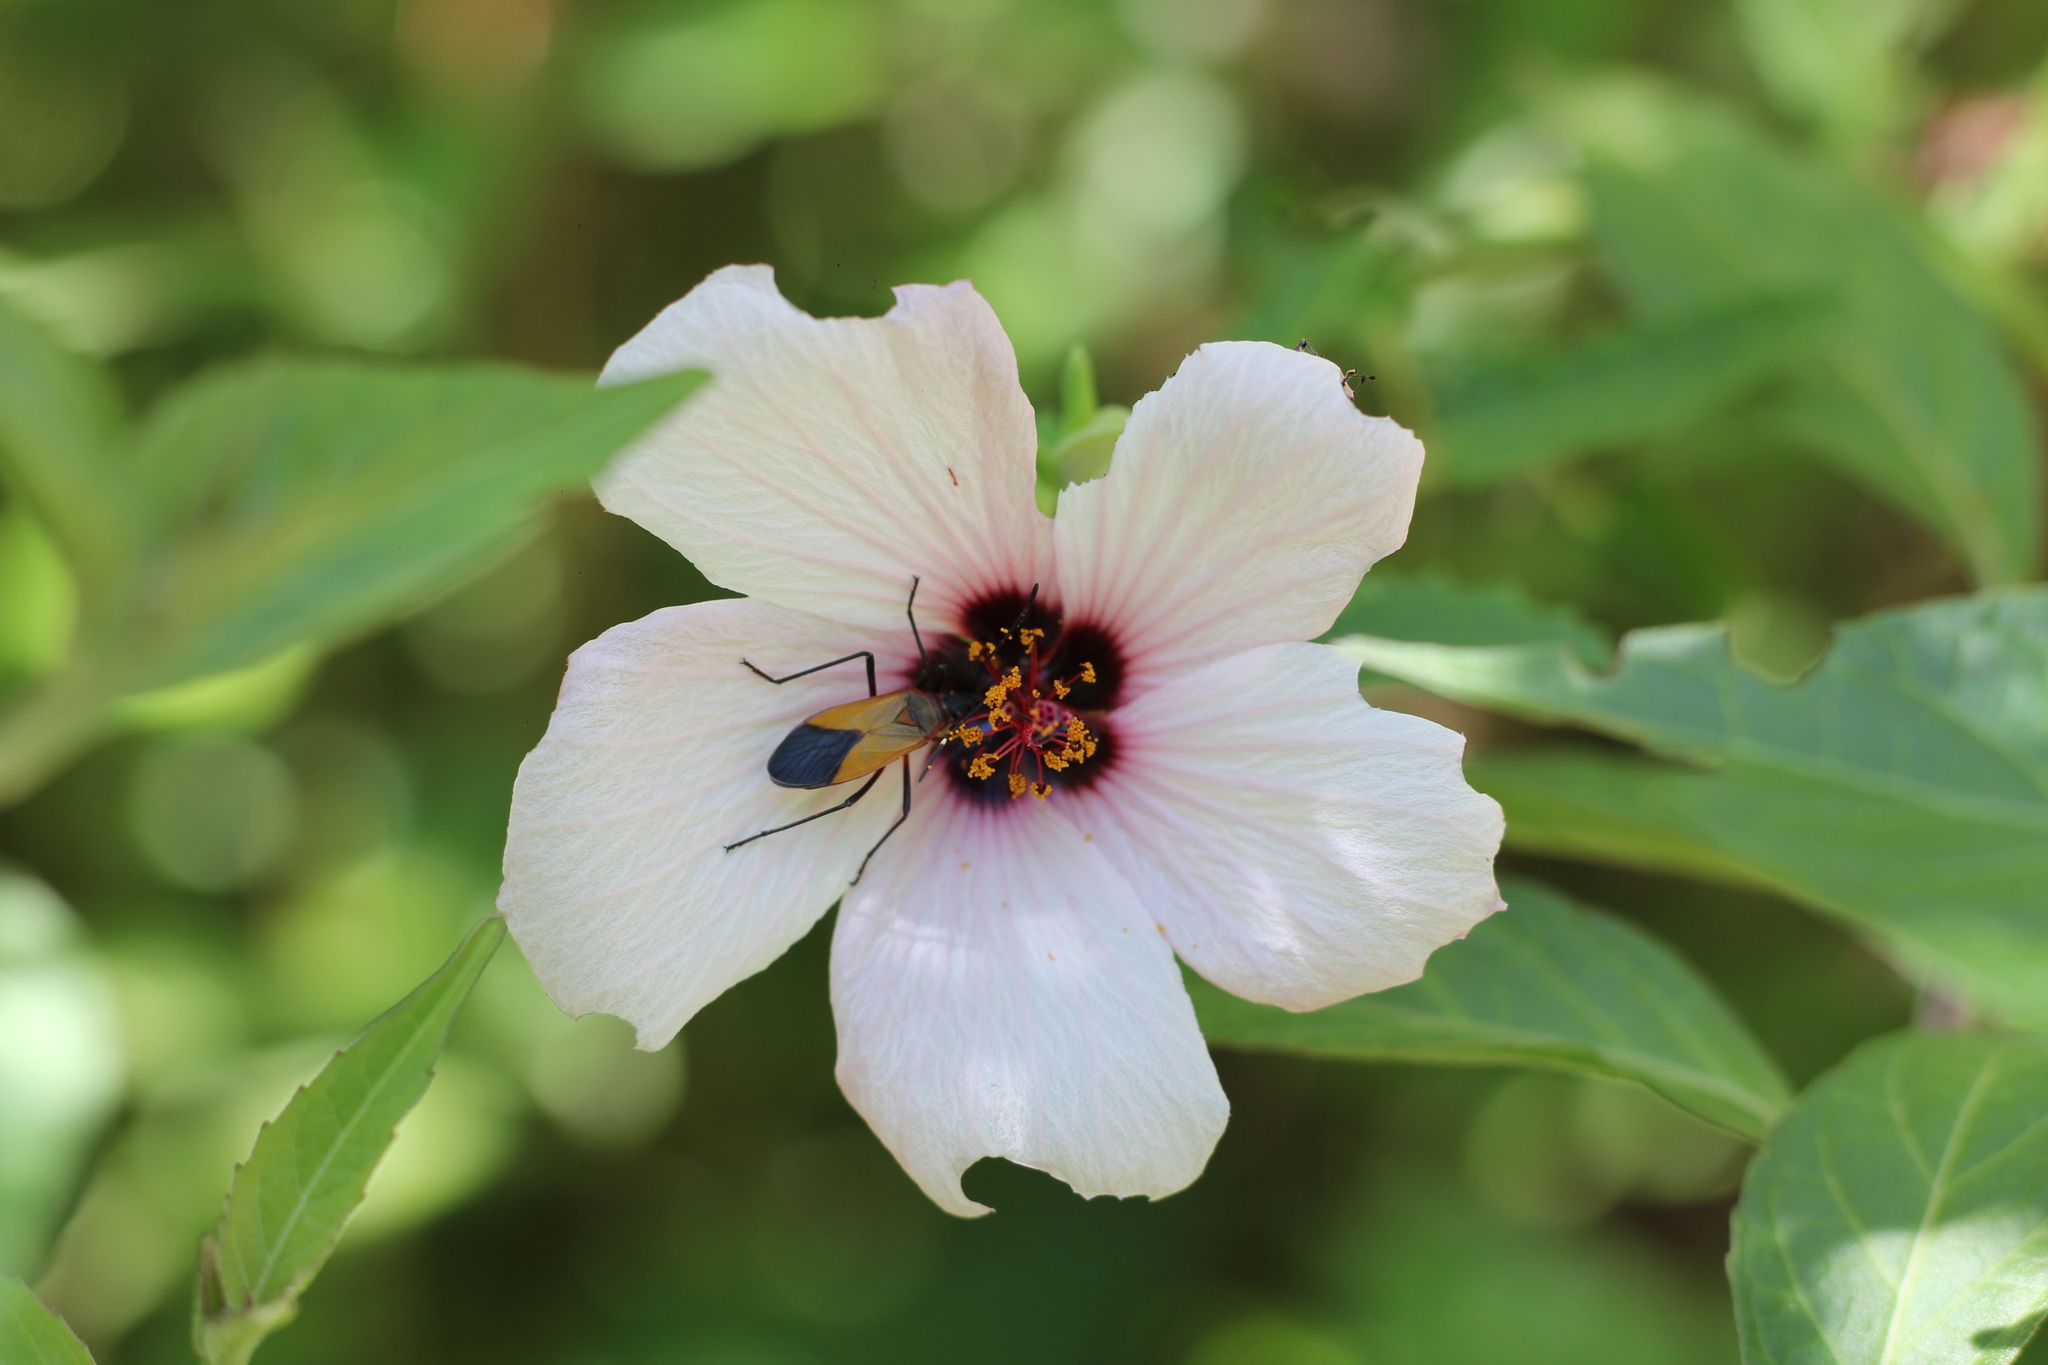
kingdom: Animalia
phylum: Arthropoda
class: Insecta
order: Hemiptera
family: Pyrrhocoridae
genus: Dysdercus
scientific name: Dysdercus
